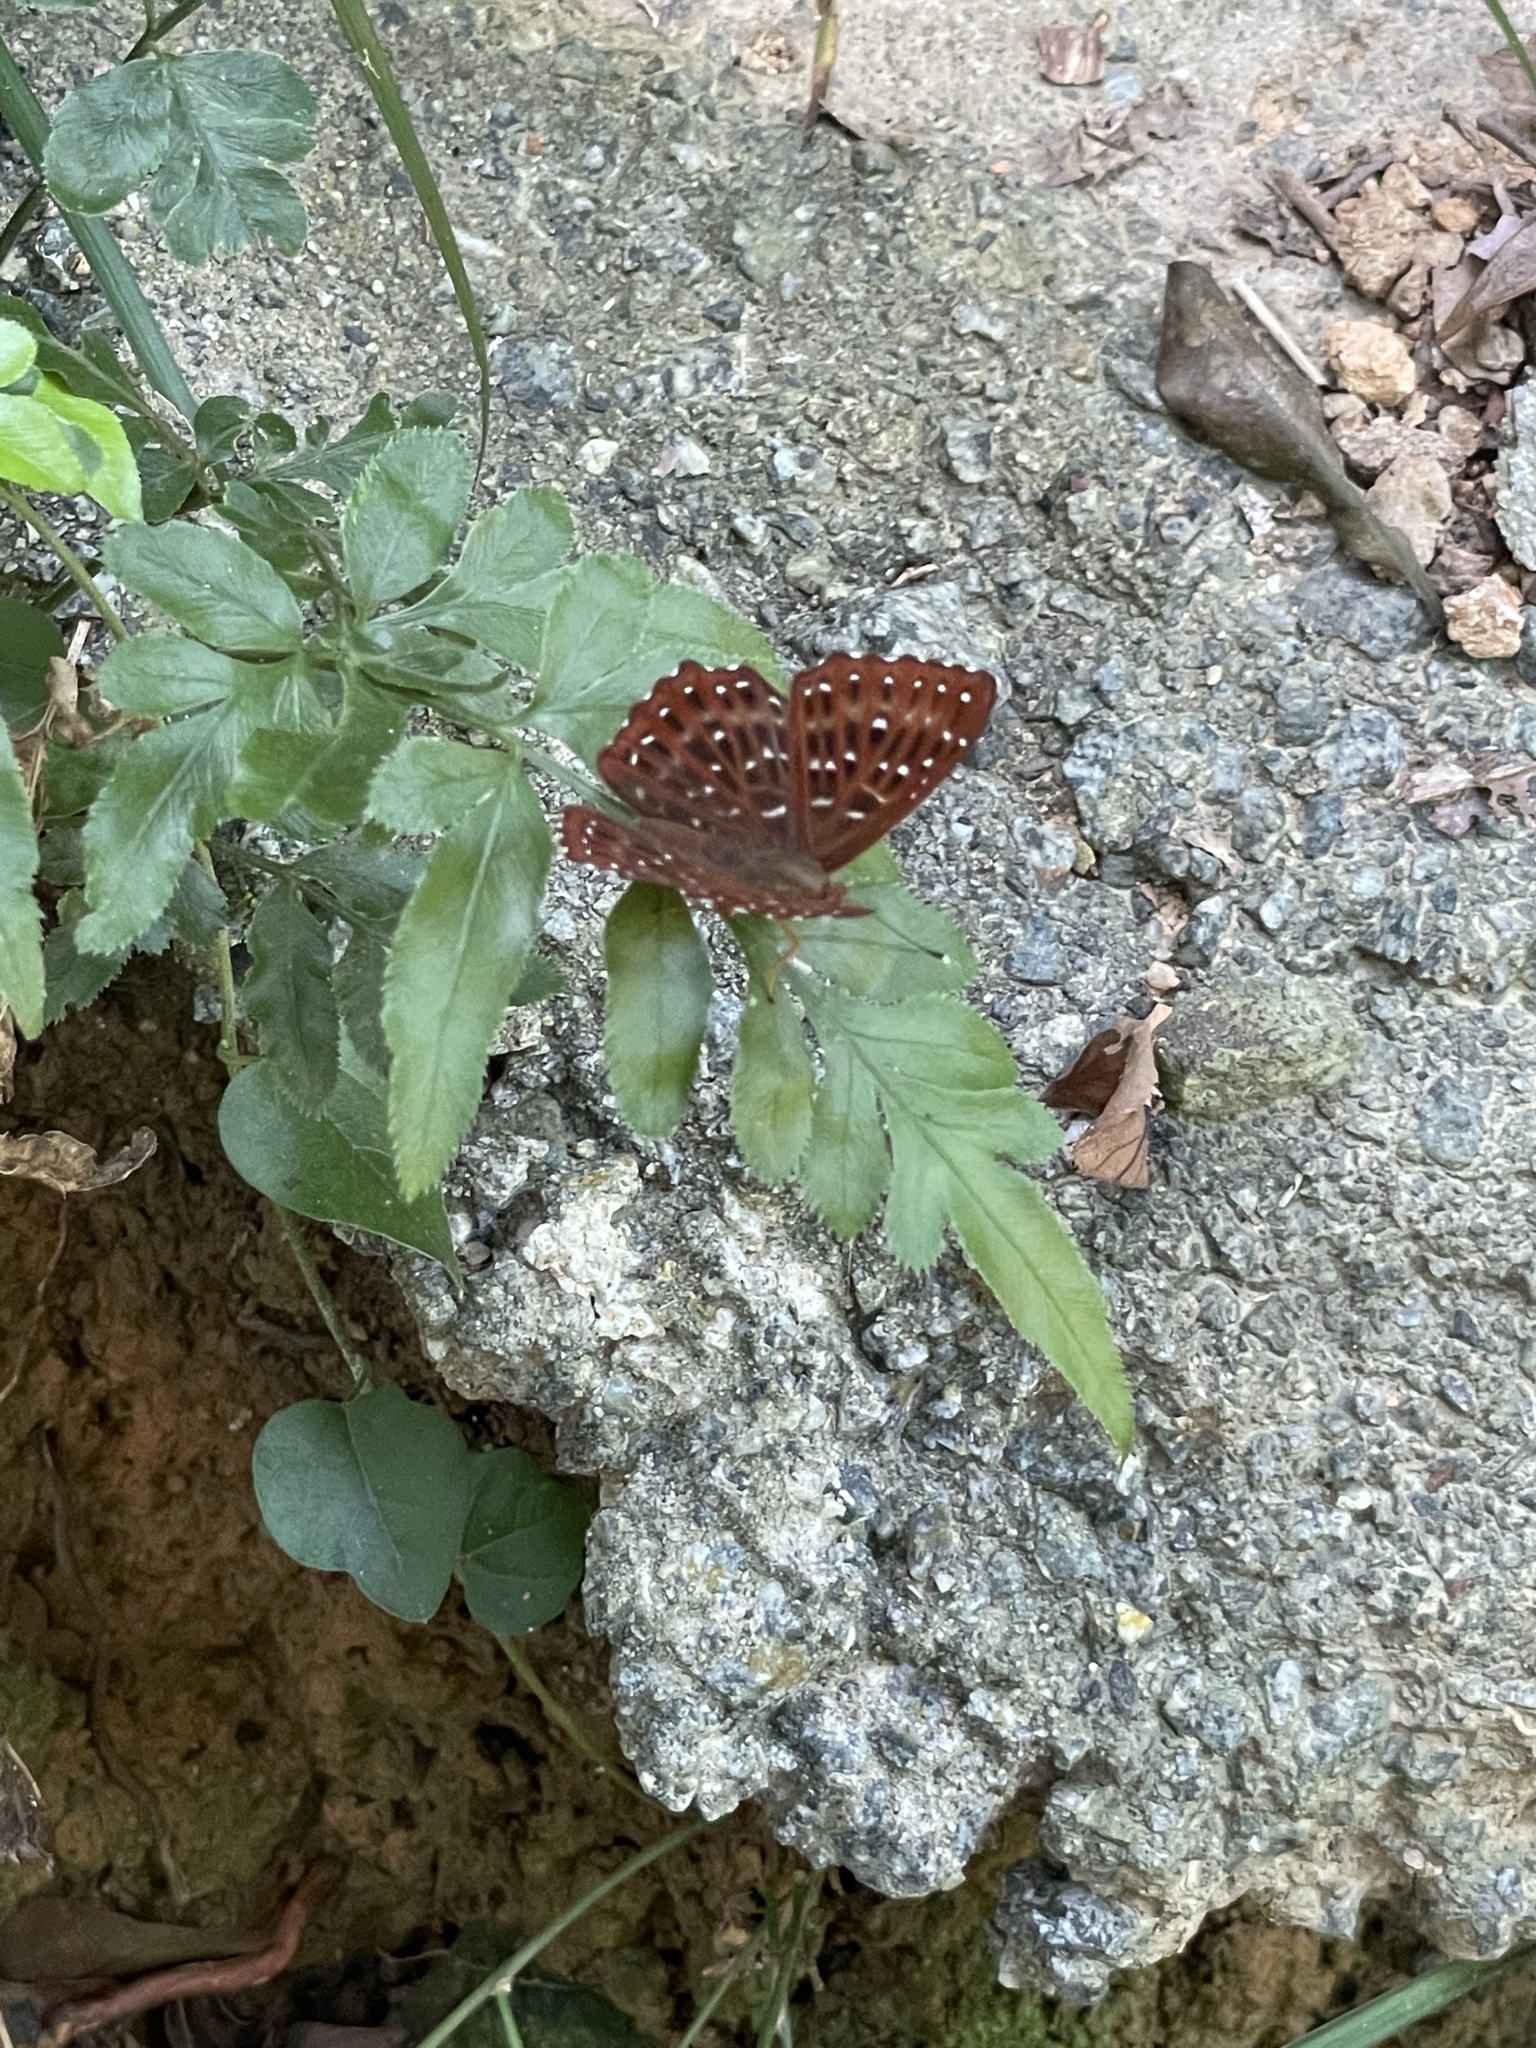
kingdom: Animalia
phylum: Arthropoda
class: Insecta
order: Lepidoptera
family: Riodinidae
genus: Zemeros
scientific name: Zemeros flegyas
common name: Punchinello
